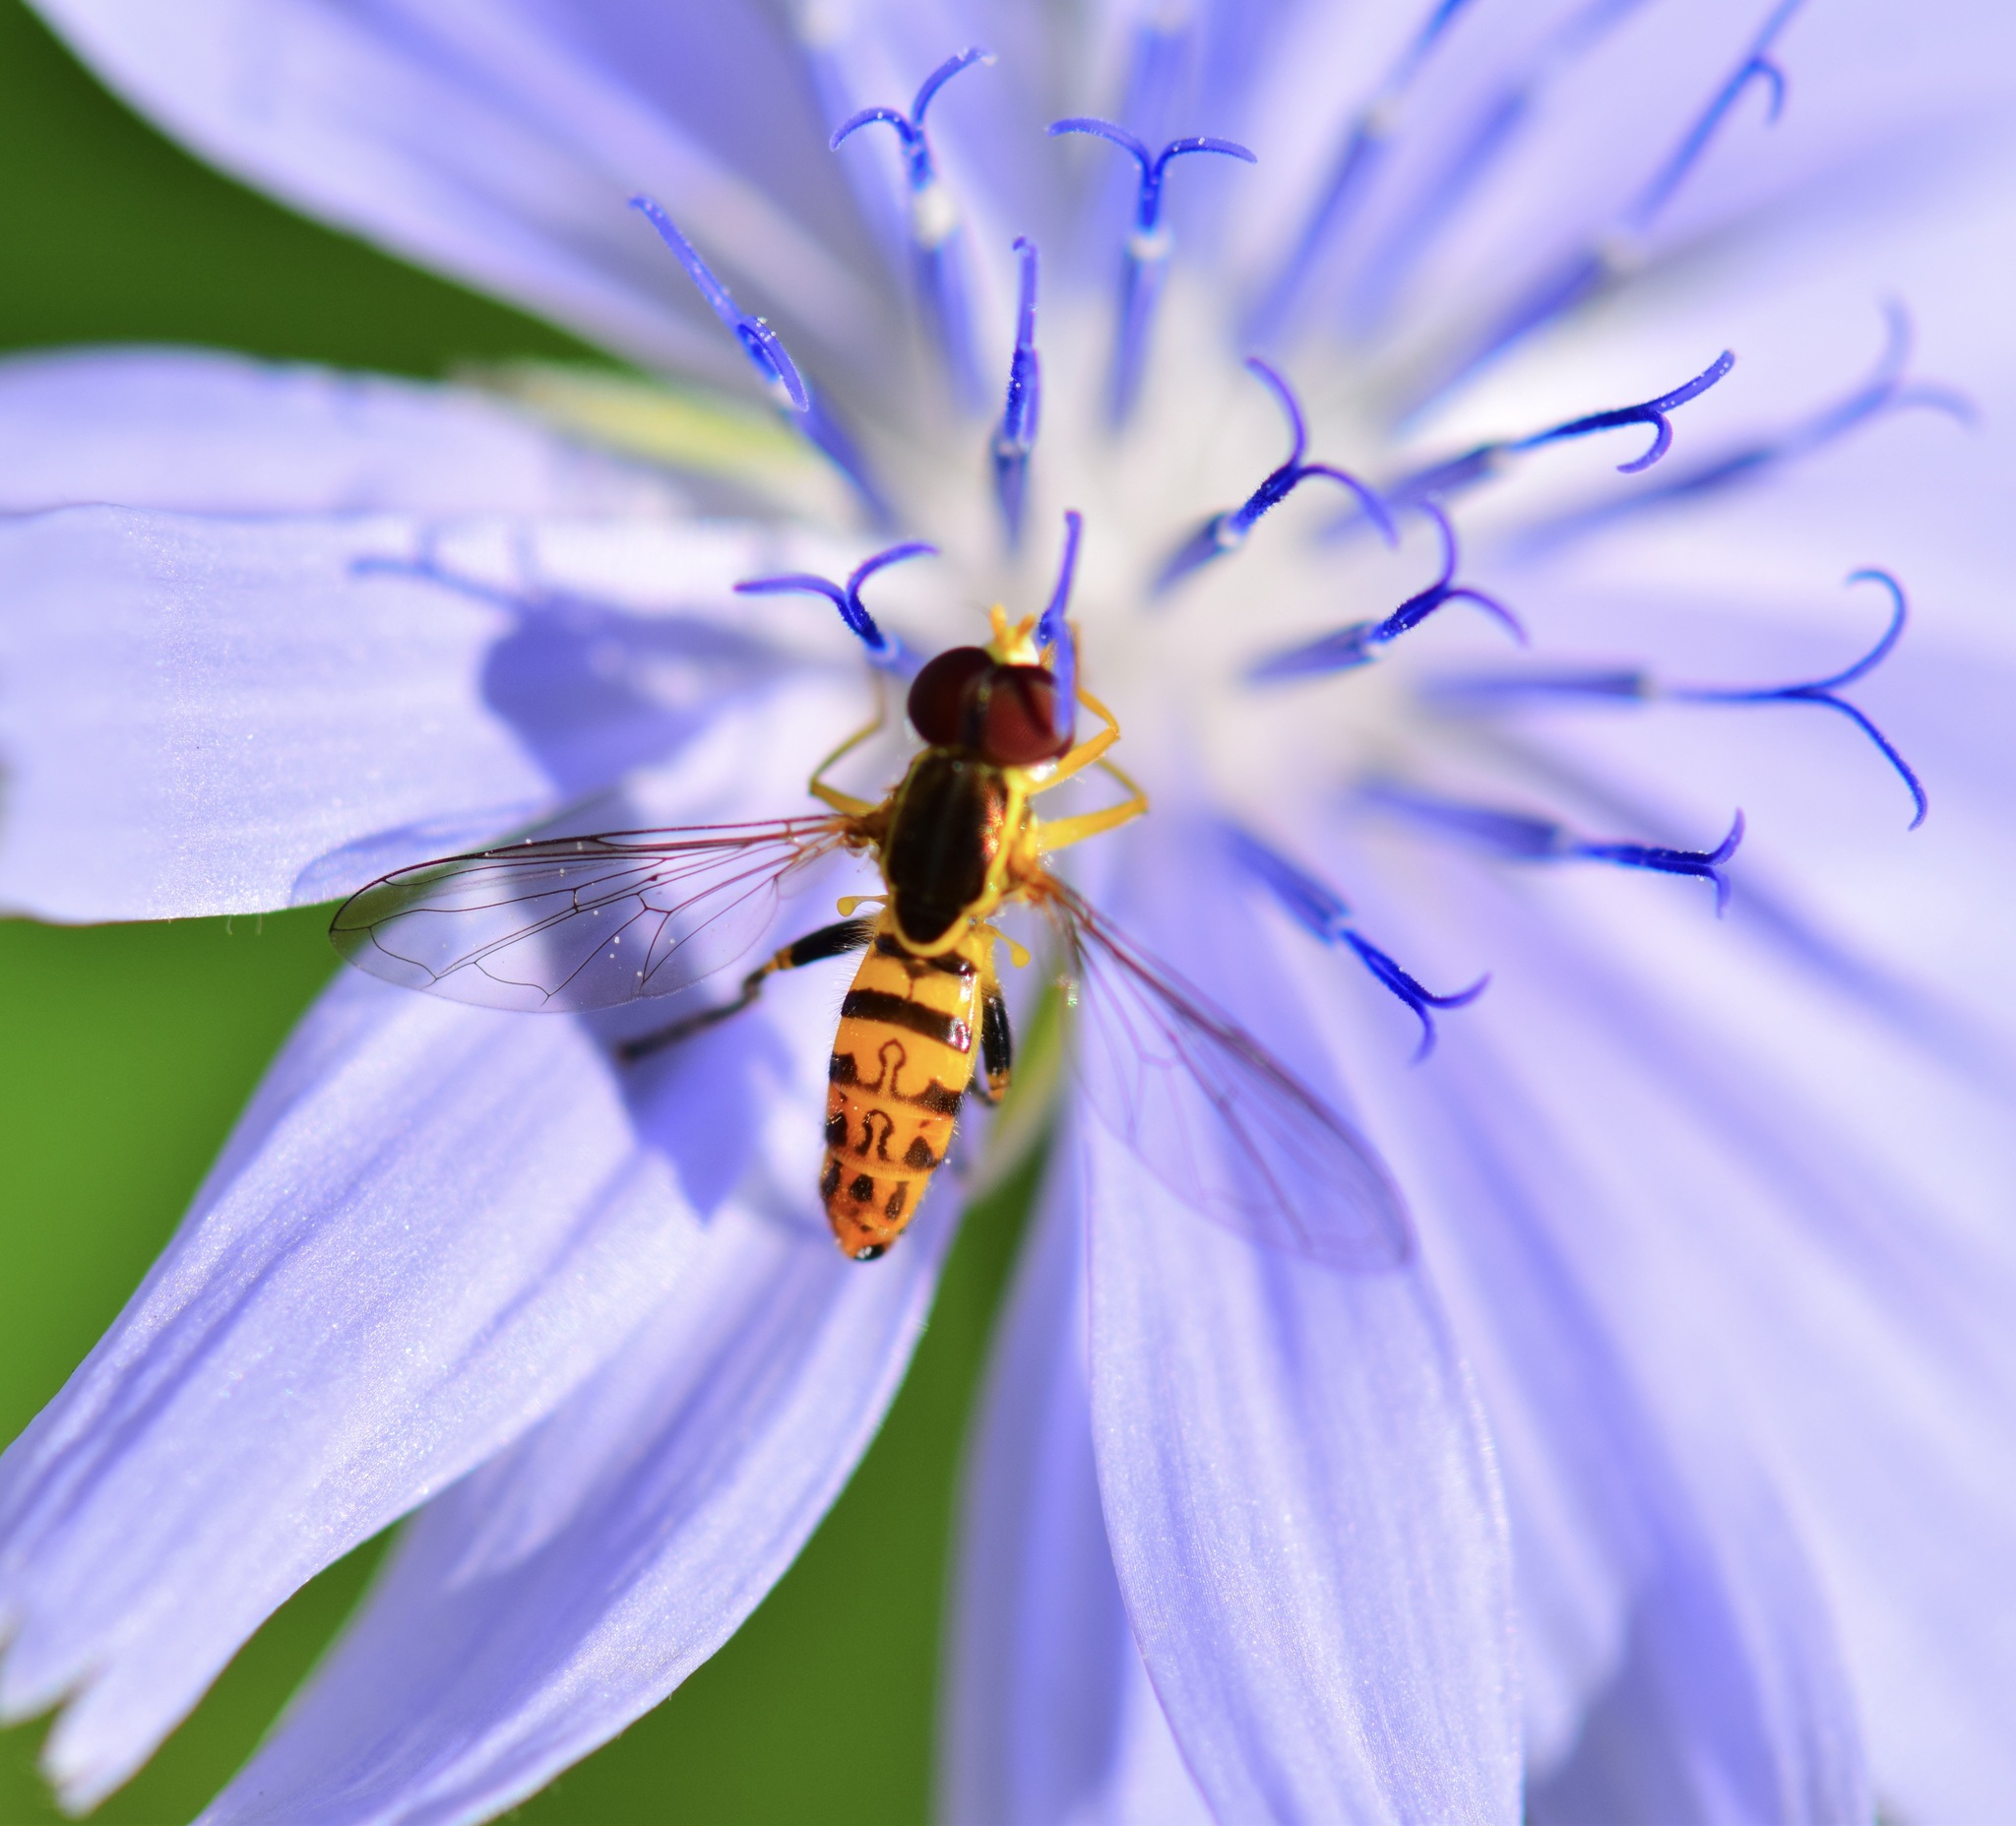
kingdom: Animalia
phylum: Arthropoda
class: Insecta
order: Diptera
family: Syrphidae
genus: Toxomerus
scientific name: Toxomerus geminatus
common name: Eastern calligrapher
